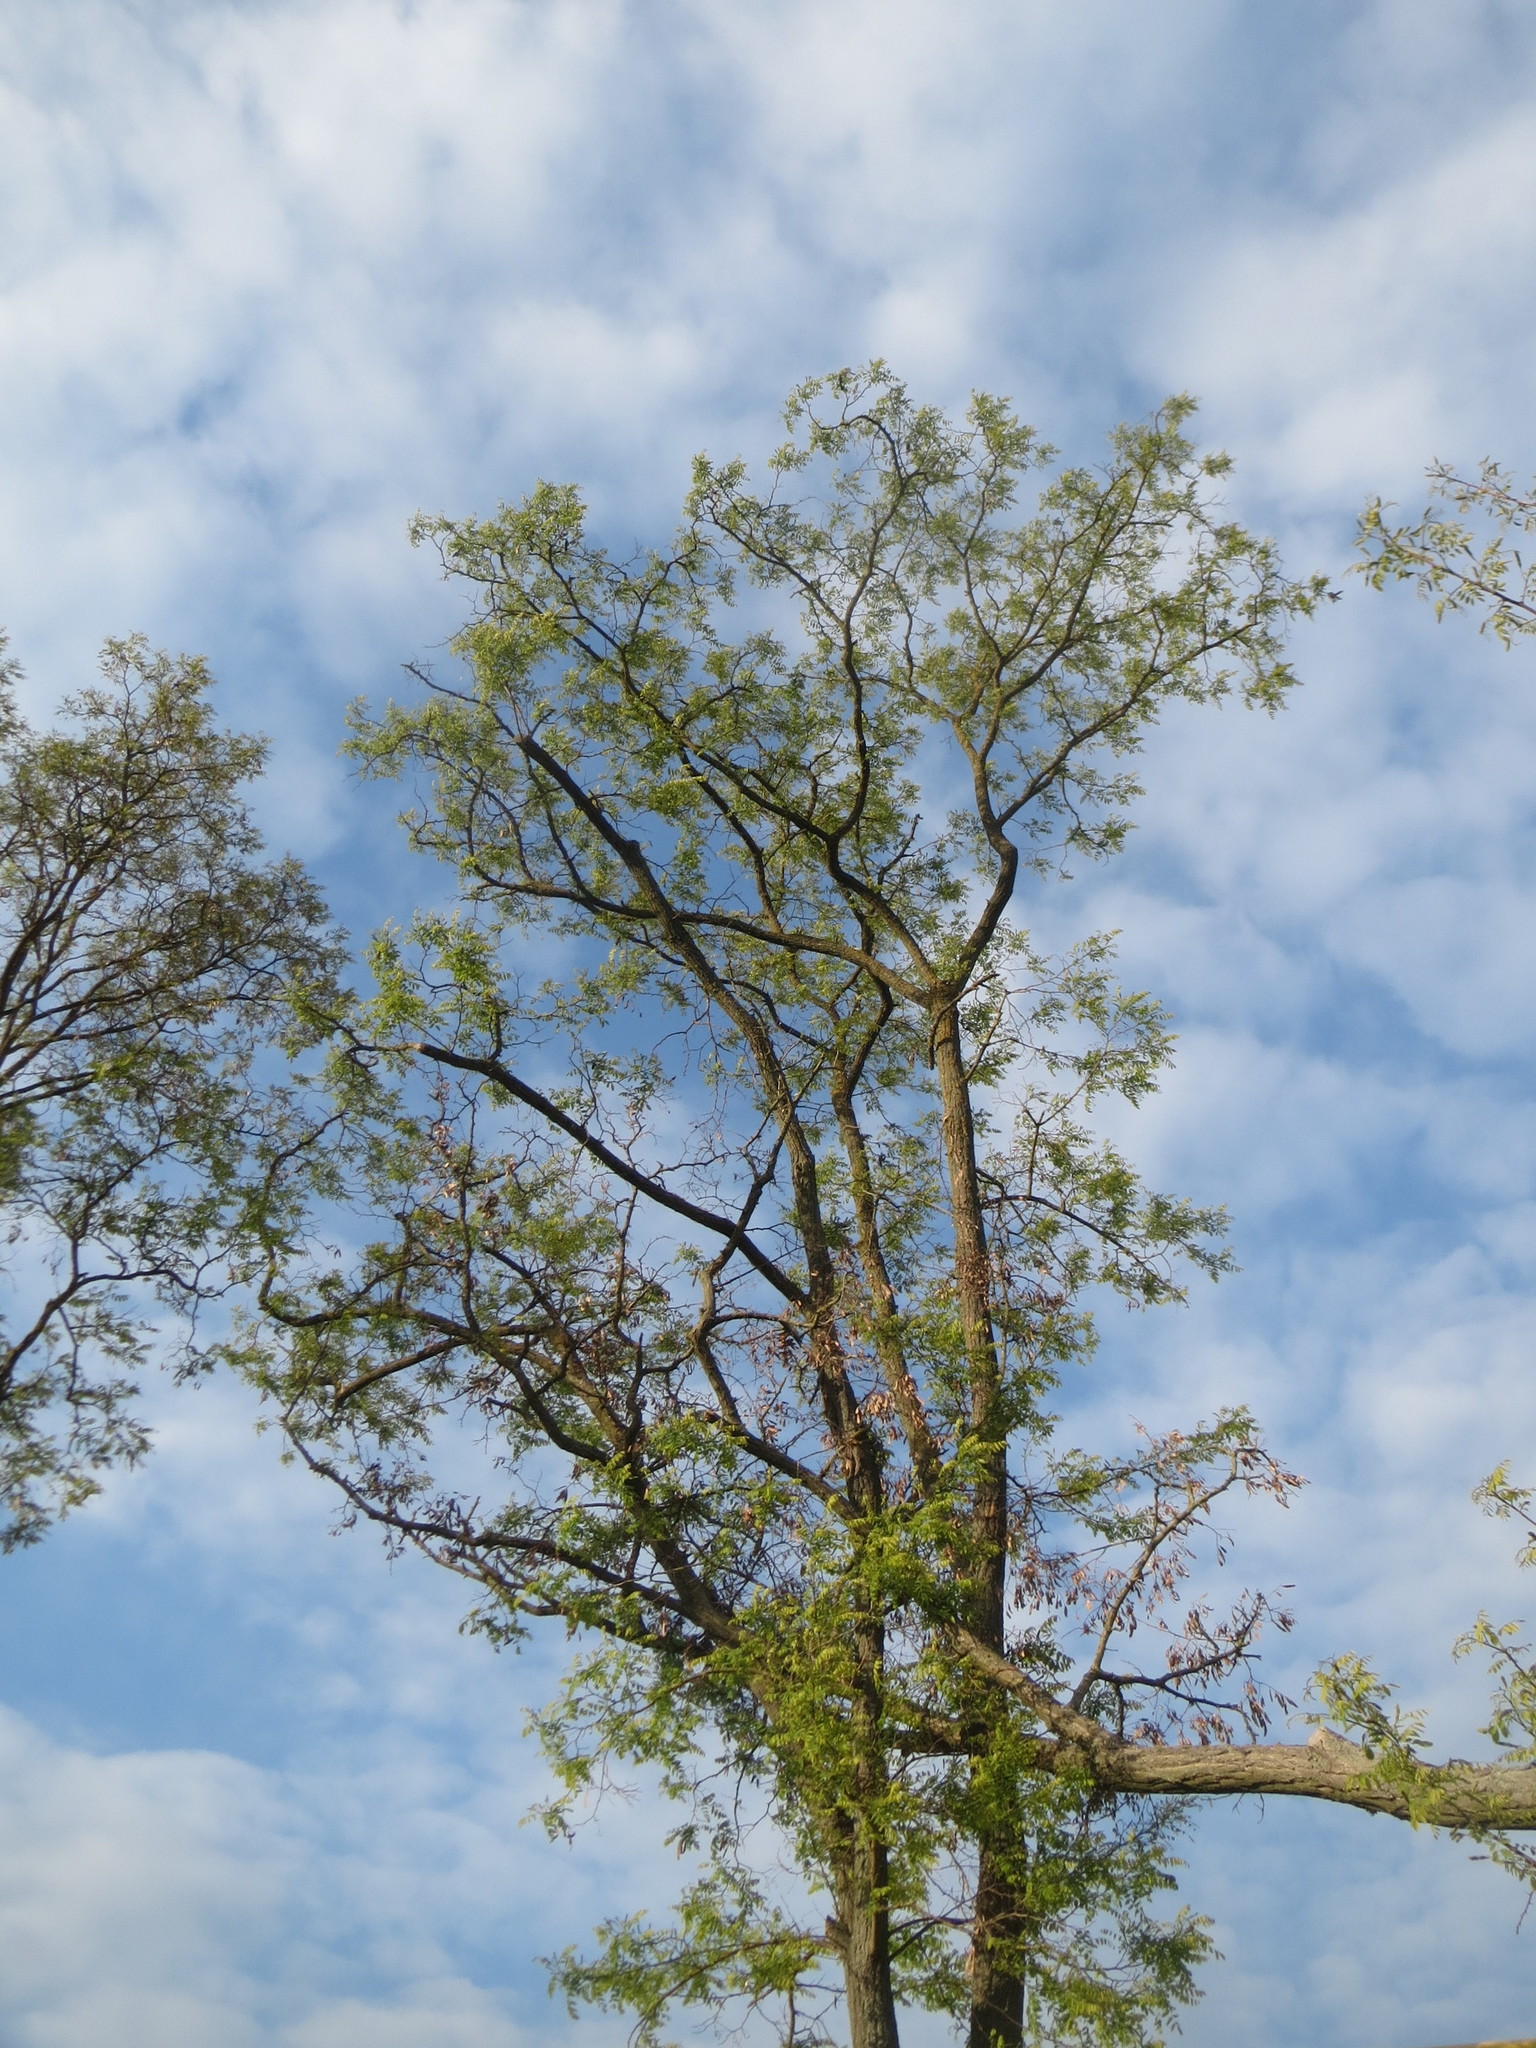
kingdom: Plantae
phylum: Tracheophyta
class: Magnoliopsida
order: Fabales
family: Fabaceae
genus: Robinia
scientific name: Robinia pseudoacacia
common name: Black locust
